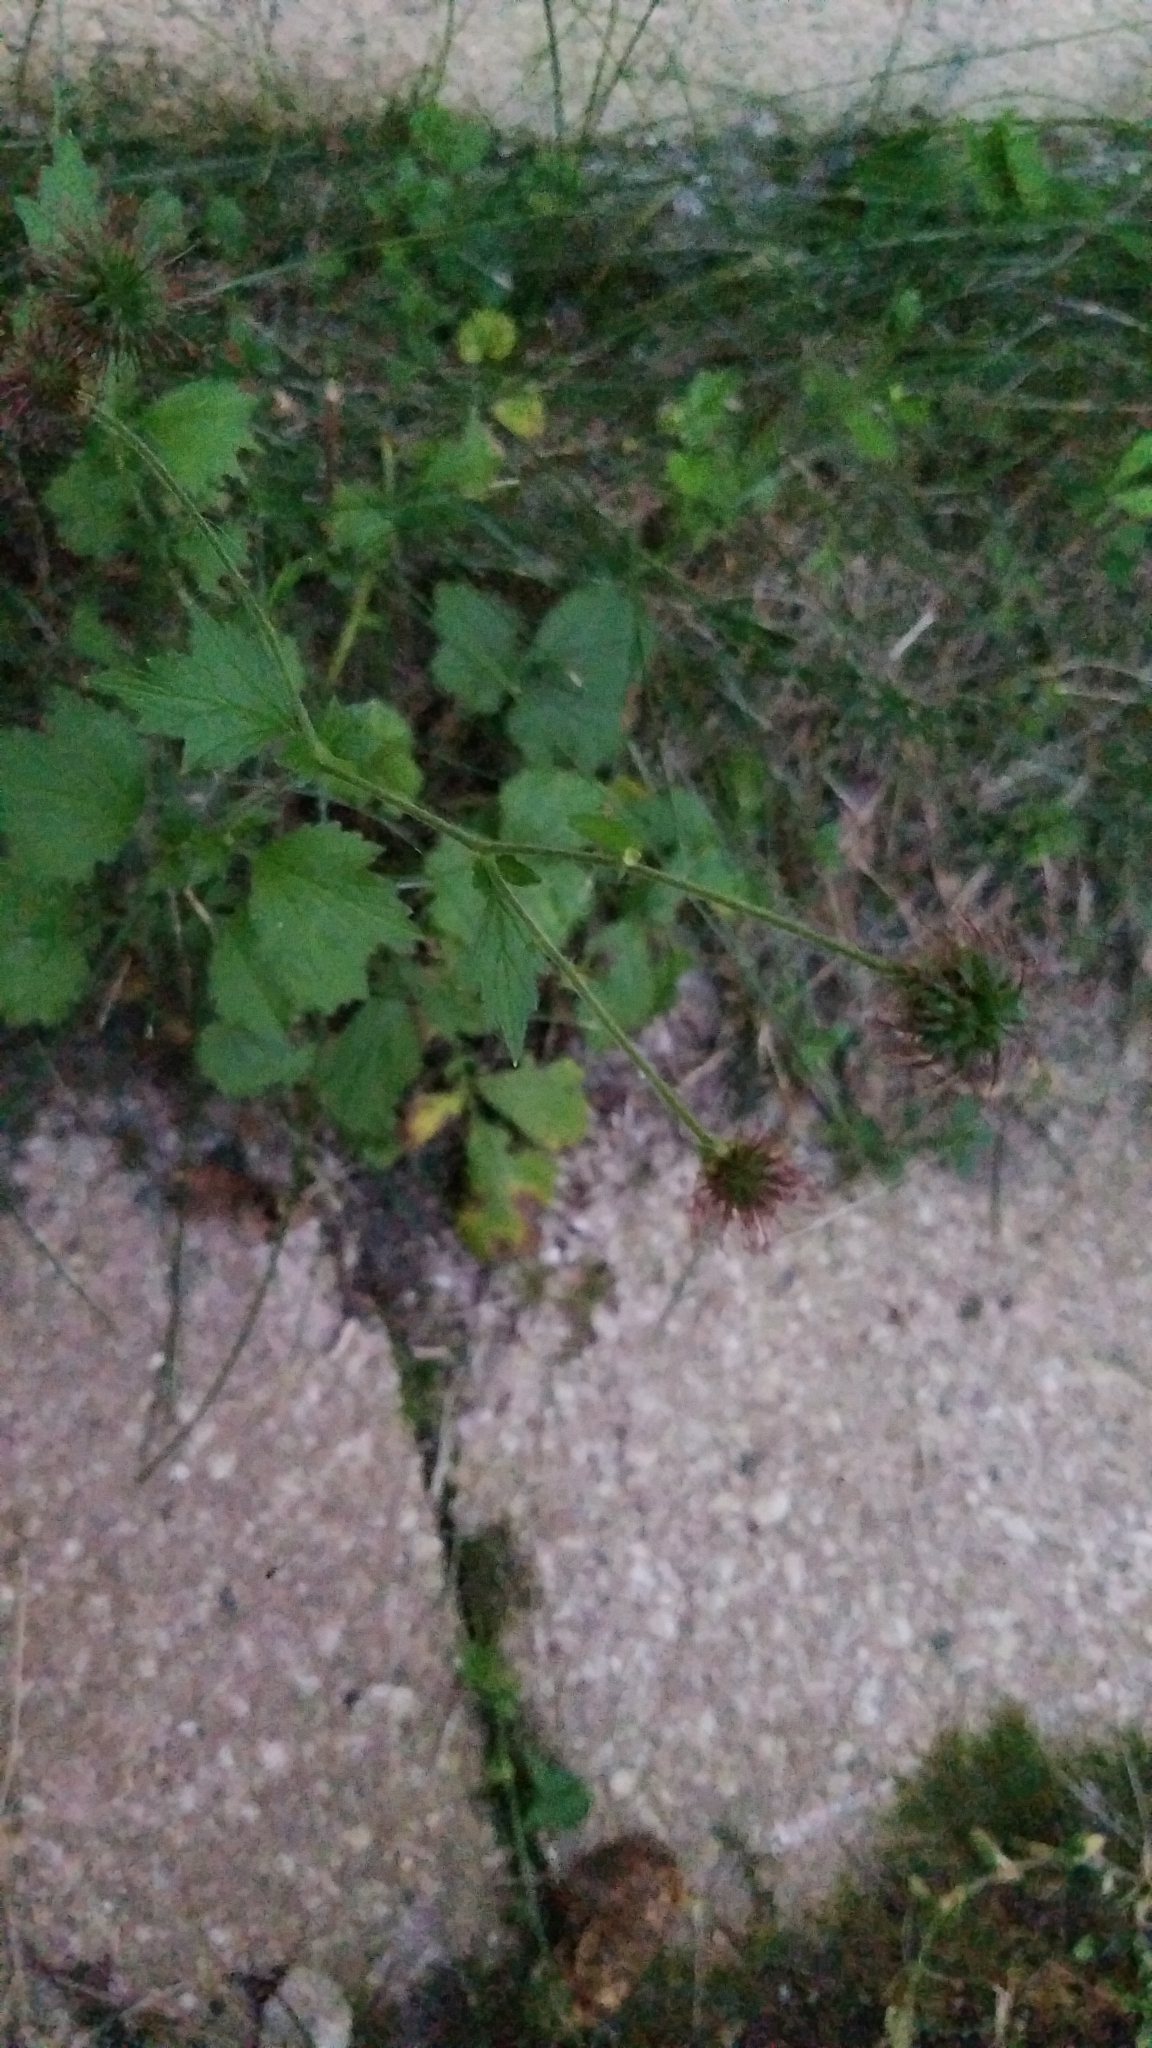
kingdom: Plantae
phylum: Tracheophyta
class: Magnoliopsida
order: Rosales
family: Rosaceae
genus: Geum
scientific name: Geum urbanum
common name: Wood avens
